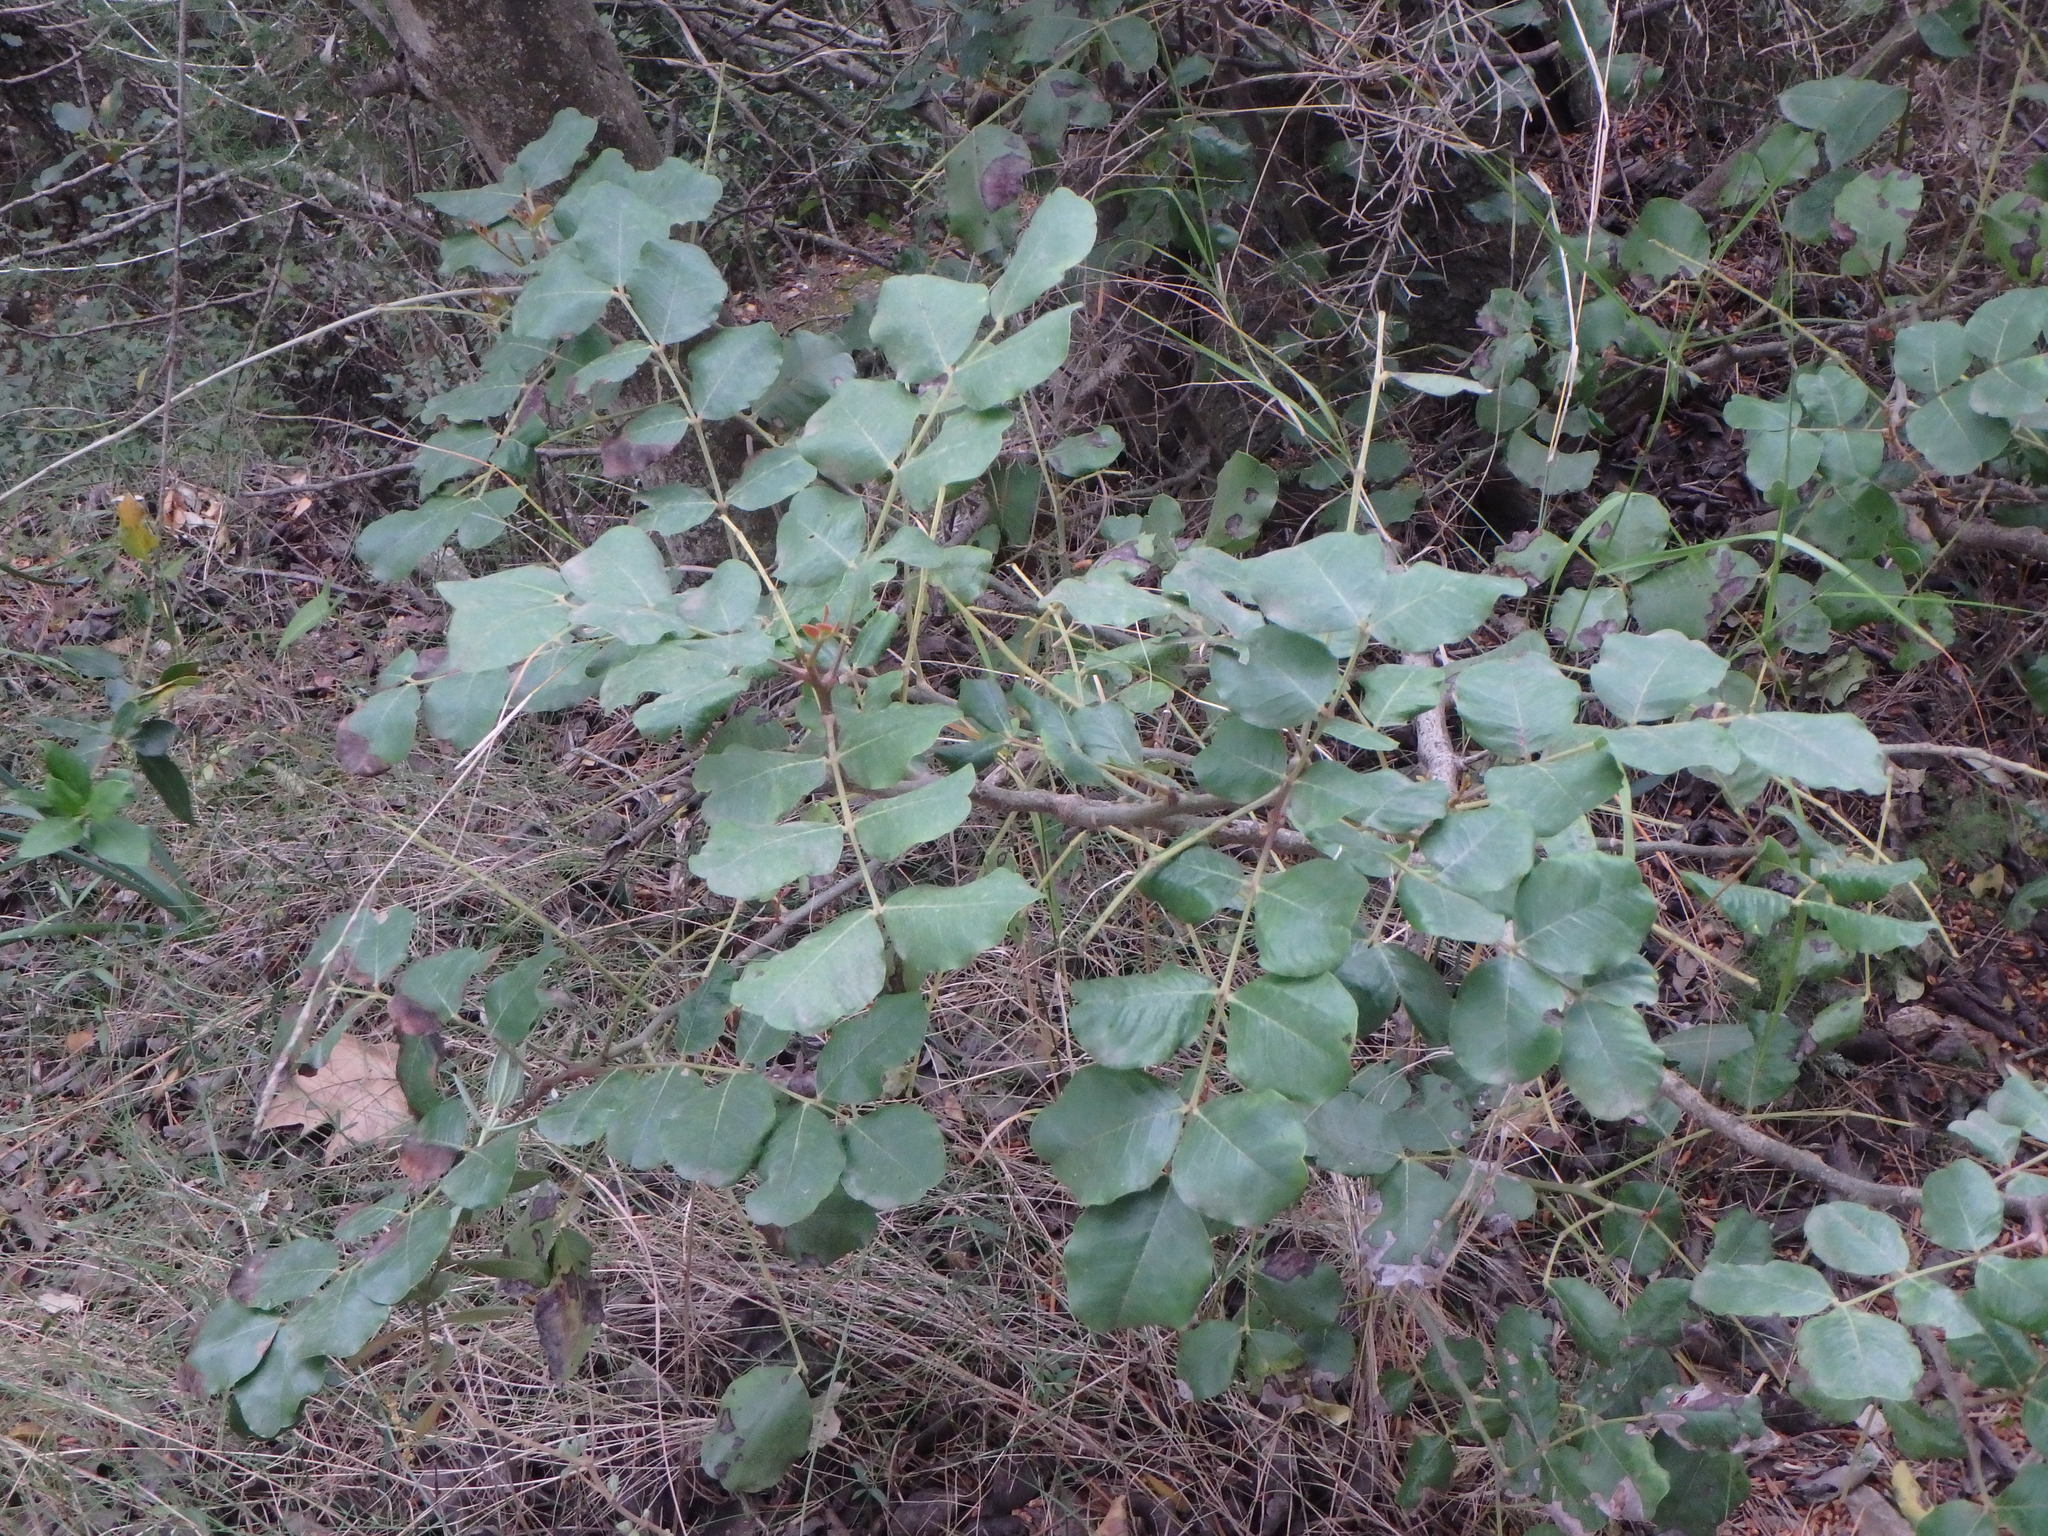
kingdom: Plantae
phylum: Tracheophyta
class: Magnoliopsida
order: Fabales
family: Fabaceae
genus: Ceratonia
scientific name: Ceratonia siliqua
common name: Carob
